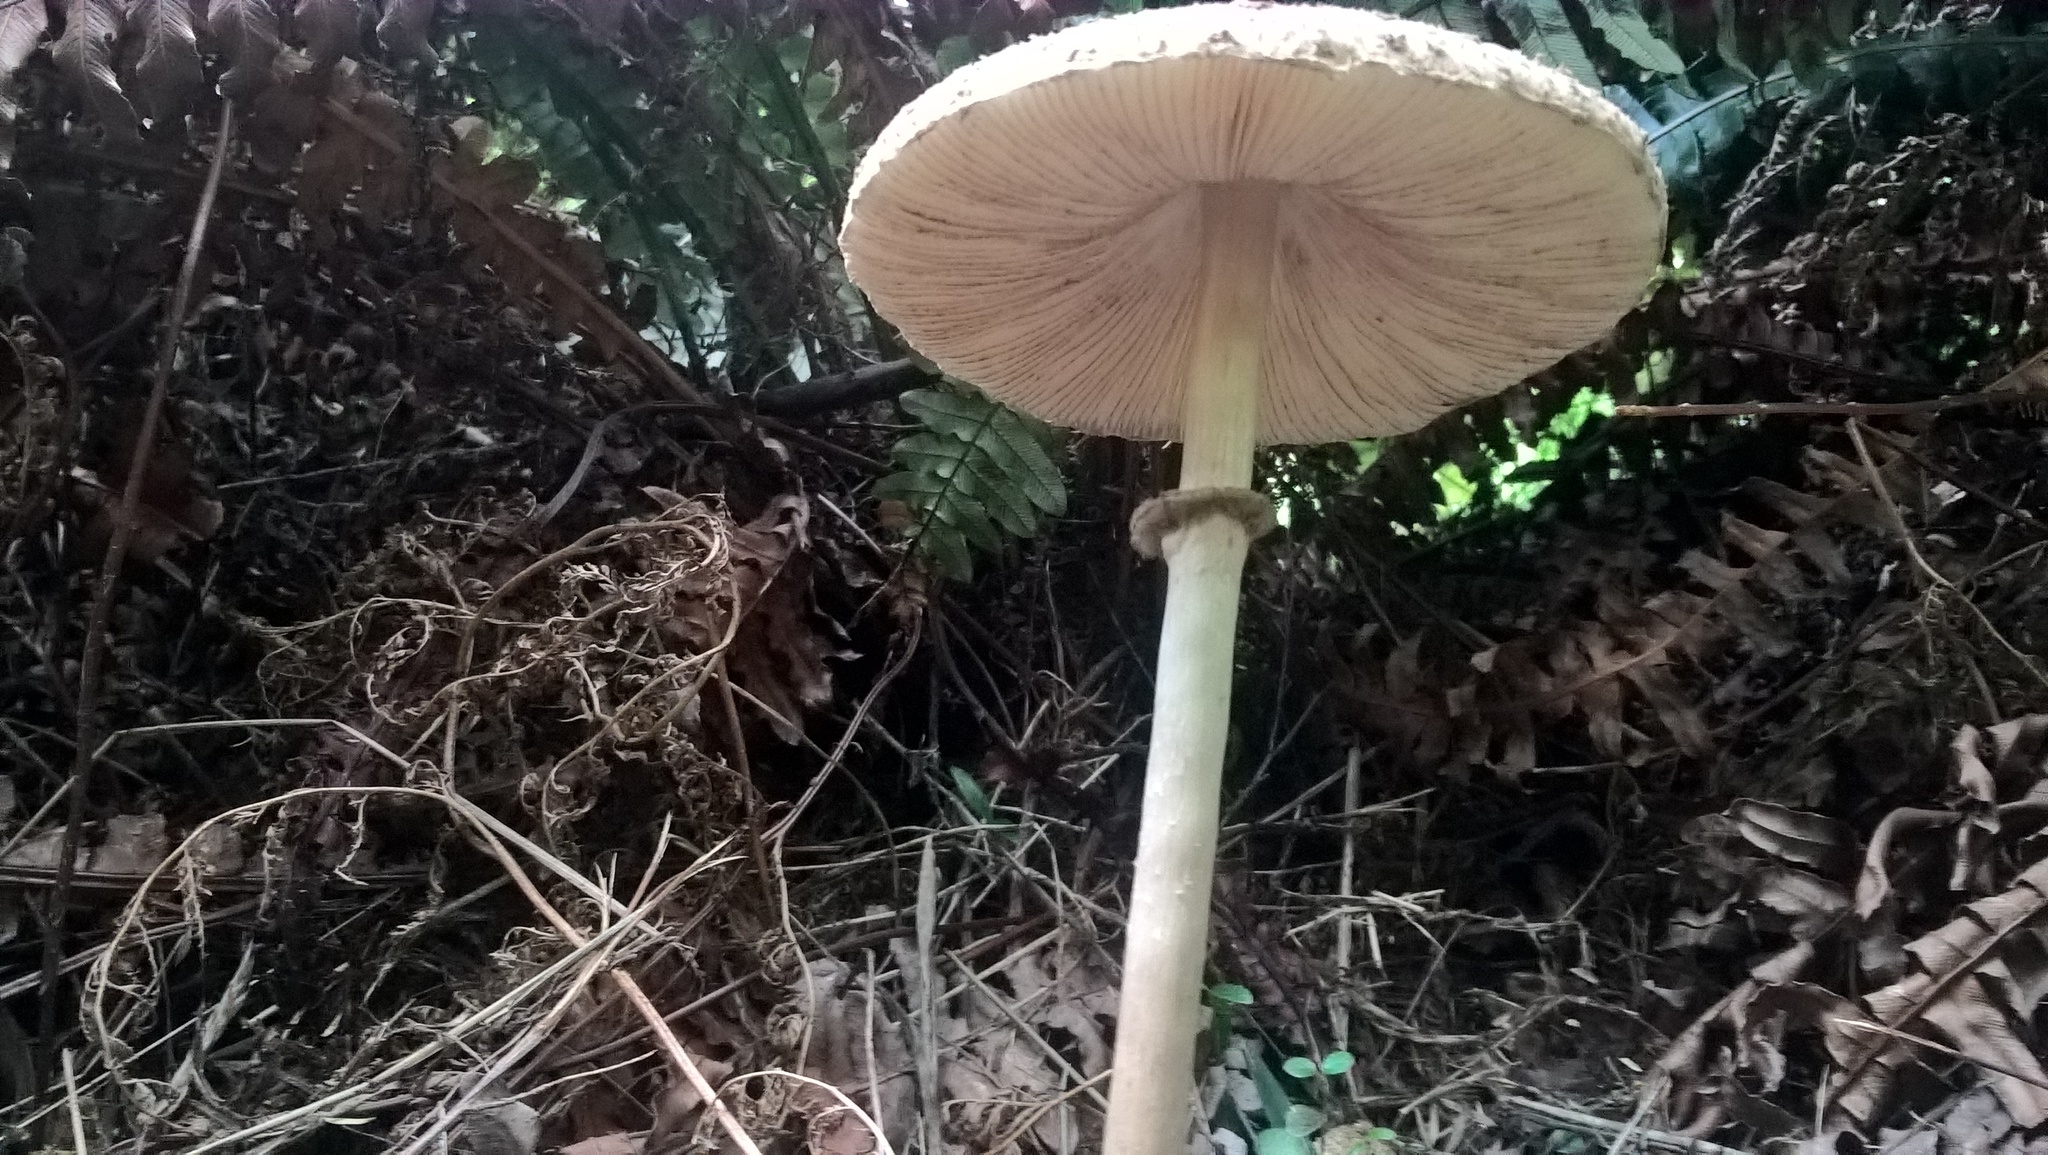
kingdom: Fungi
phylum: Basidiomycota
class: Agaricomycetes
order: Agaricales
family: Agaricaceae
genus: Macrolepiota
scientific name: Macrolepiota clelandii
